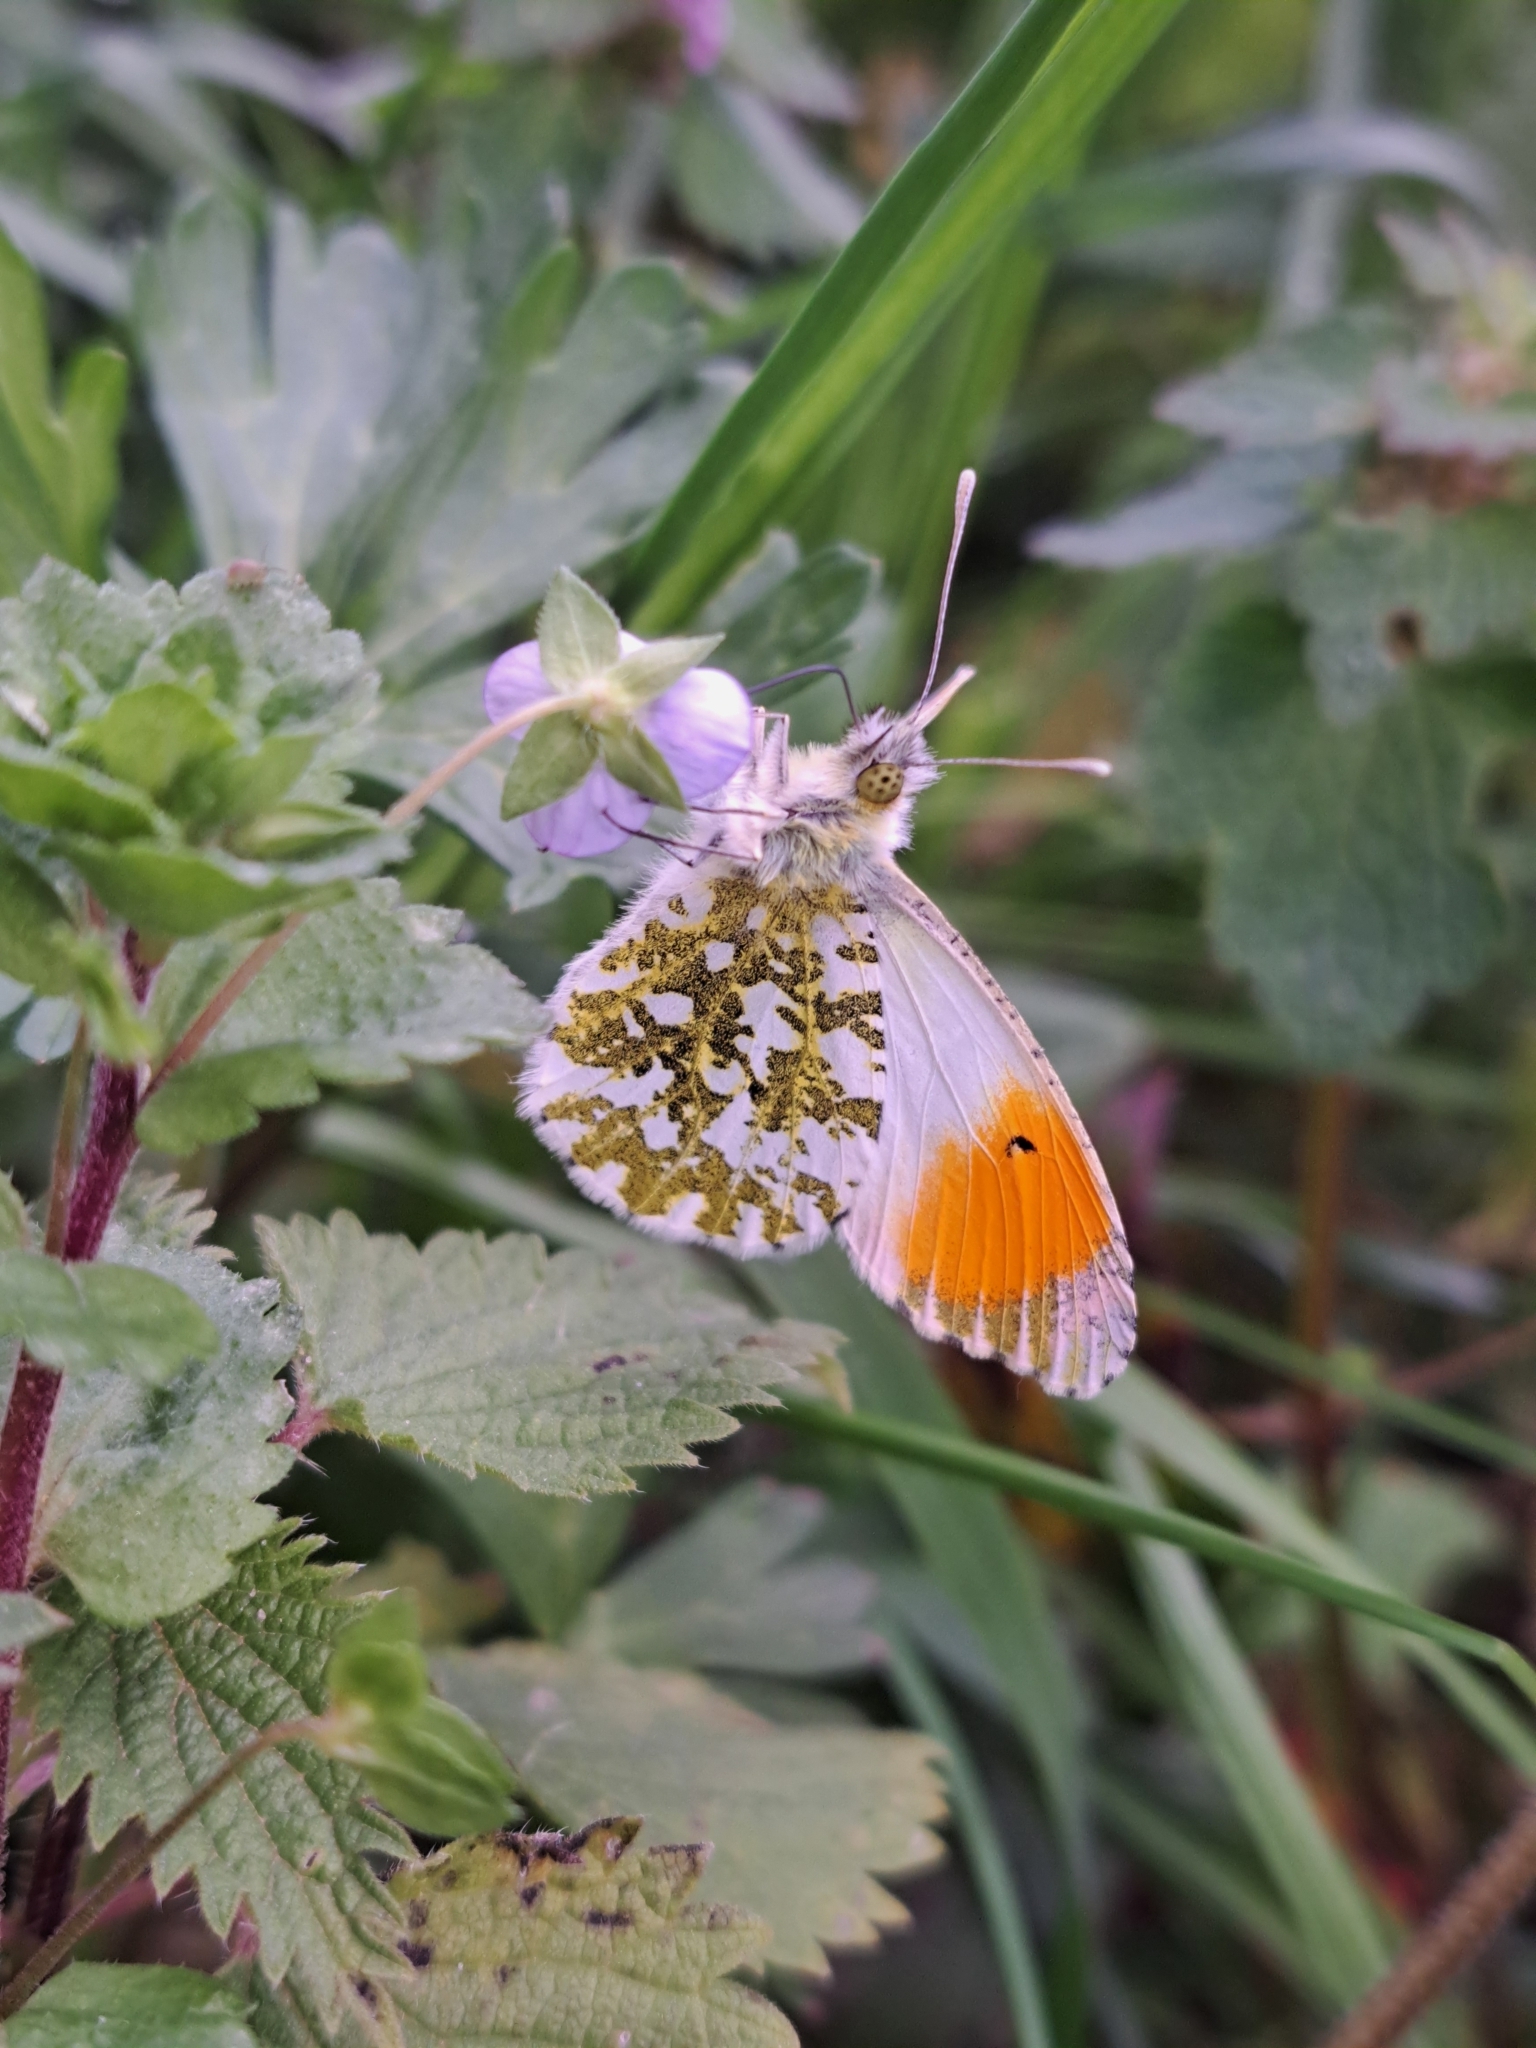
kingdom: Animalia
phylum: Arthropoda
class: Insecta
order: Lepidoptera
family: Pieridae
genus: Anthocharis
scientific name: Anthocharis cardamines
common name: Orange-tip
